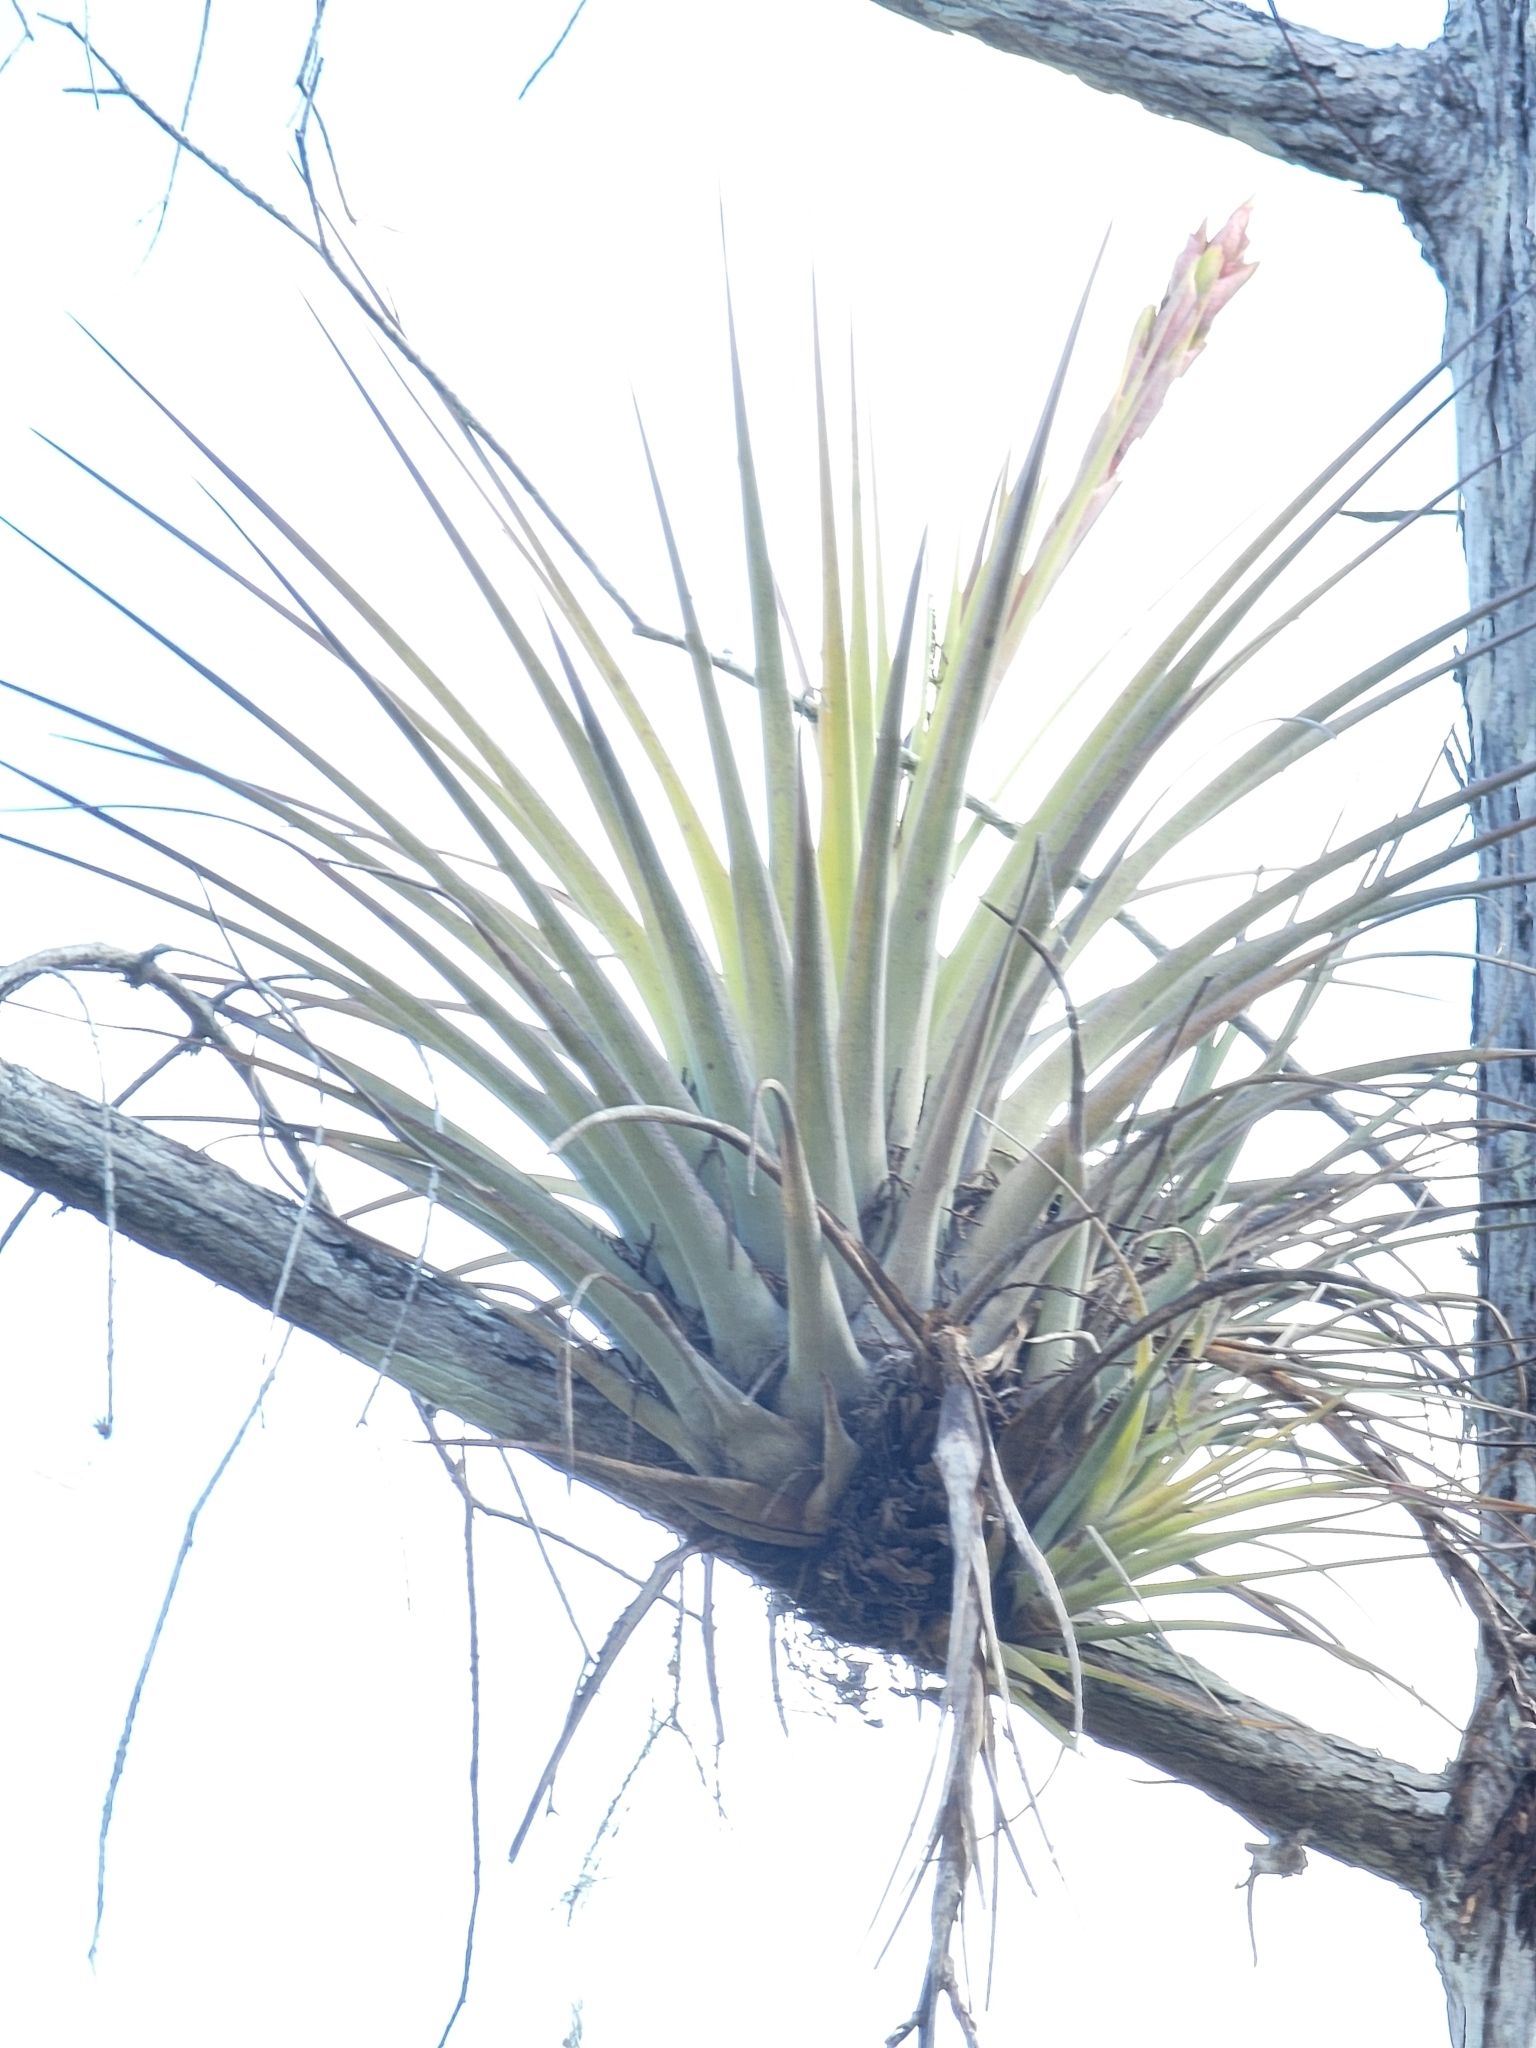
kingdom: Plantae
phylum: Tracheophyta
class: Liliopsida
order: Poales
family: Bromeliaceae
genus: Tillandsia
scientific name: Tillandsia fasciculata
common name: Giant airplant
